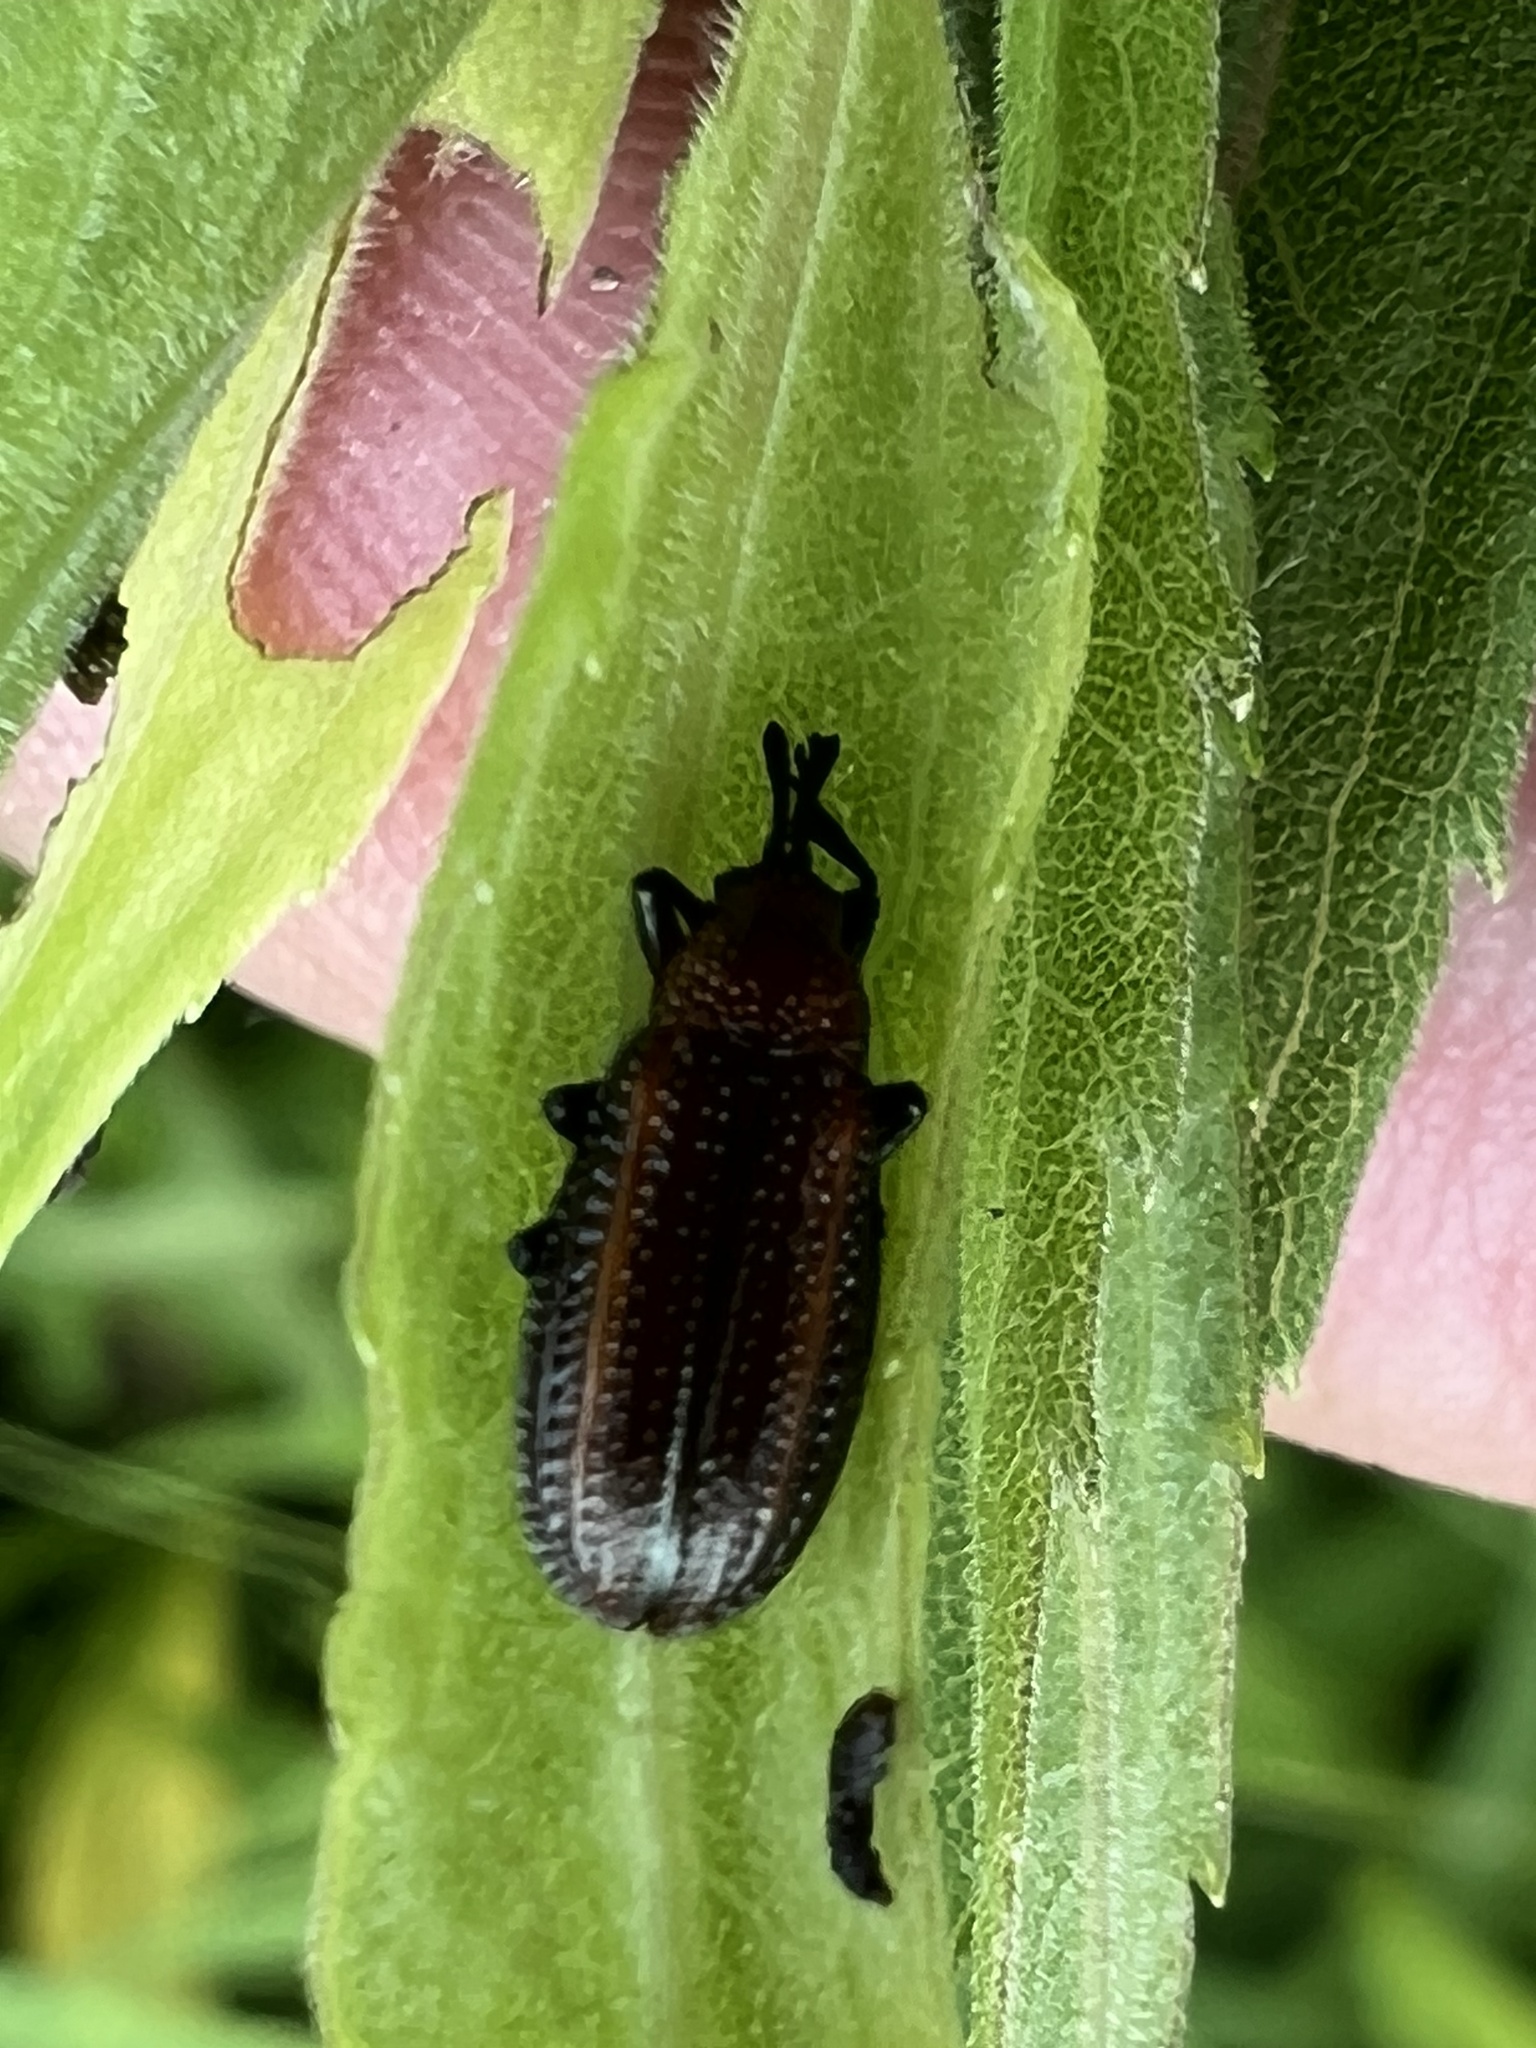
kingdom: Animalia
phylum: Arthropoda
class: Insecta
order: Coleoptera
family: Chrysomelidae
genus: Microrhopala
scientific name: Microrhopala vittata
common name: Goldenrod leaf miner beetle
